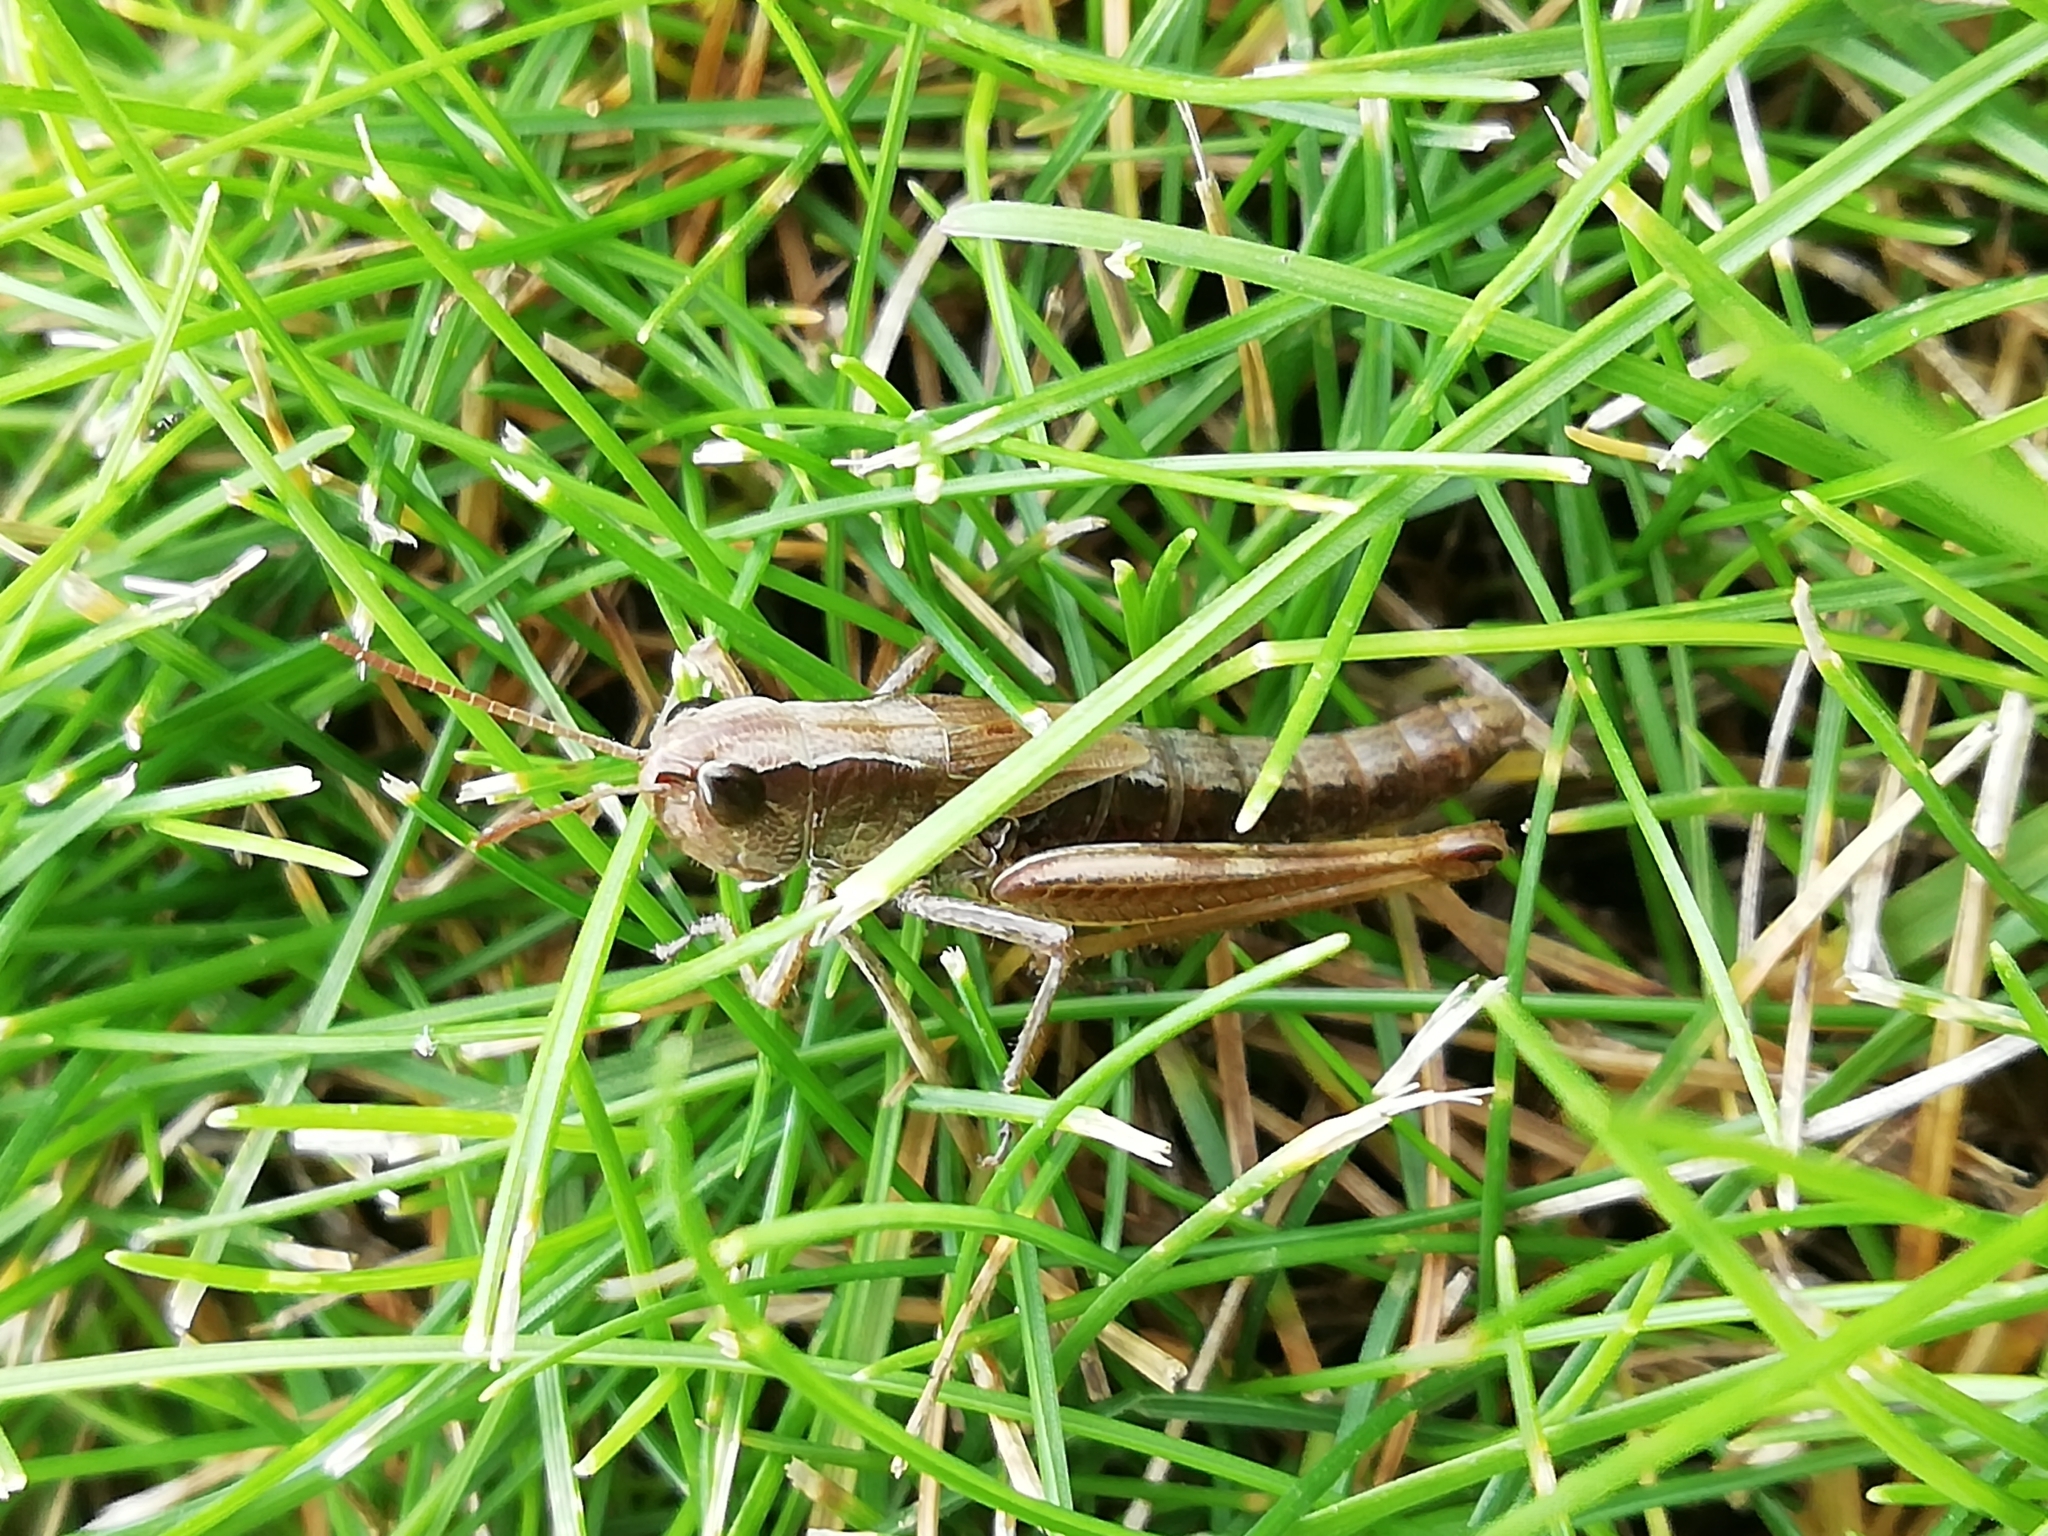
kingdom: Animalia
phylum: Arthropoda
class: Insecta
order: Orthoptera
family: Acrididae
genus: Pseudochorthippus
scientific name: Pseudochorthippus parallelus
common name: Meadow grasshopper
